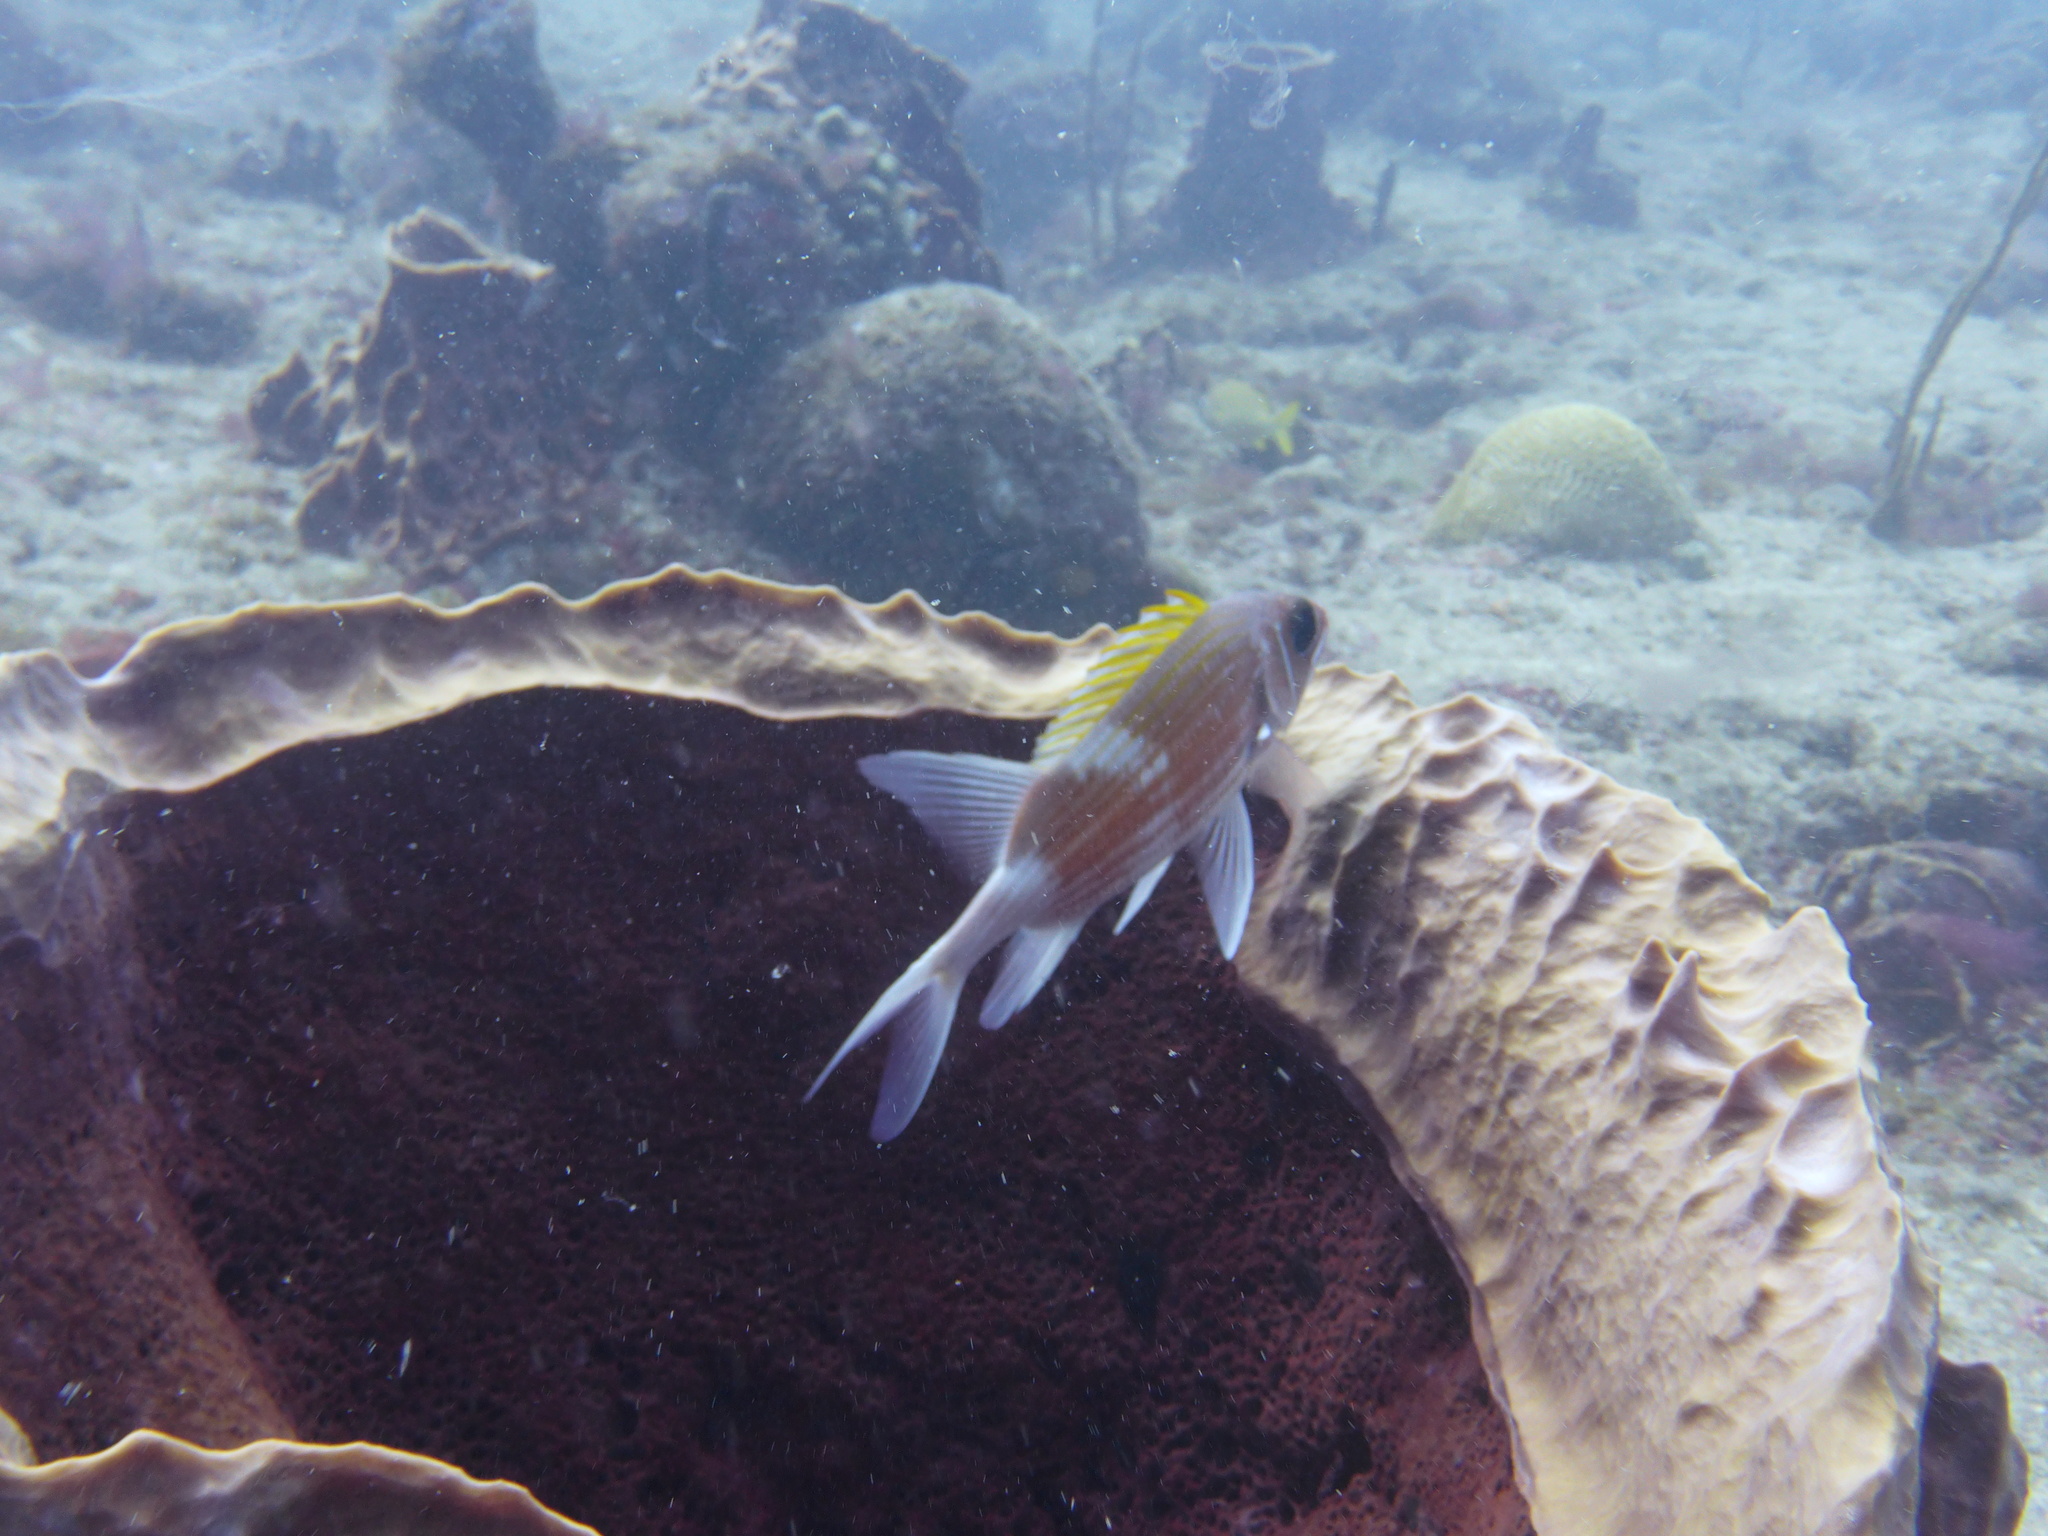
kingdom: Animalia
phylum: Chordata
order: Beryciformes
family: Holocentridae
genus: Holocentrus
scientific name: Holocentrus adscensionis
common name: Squirrelfish
